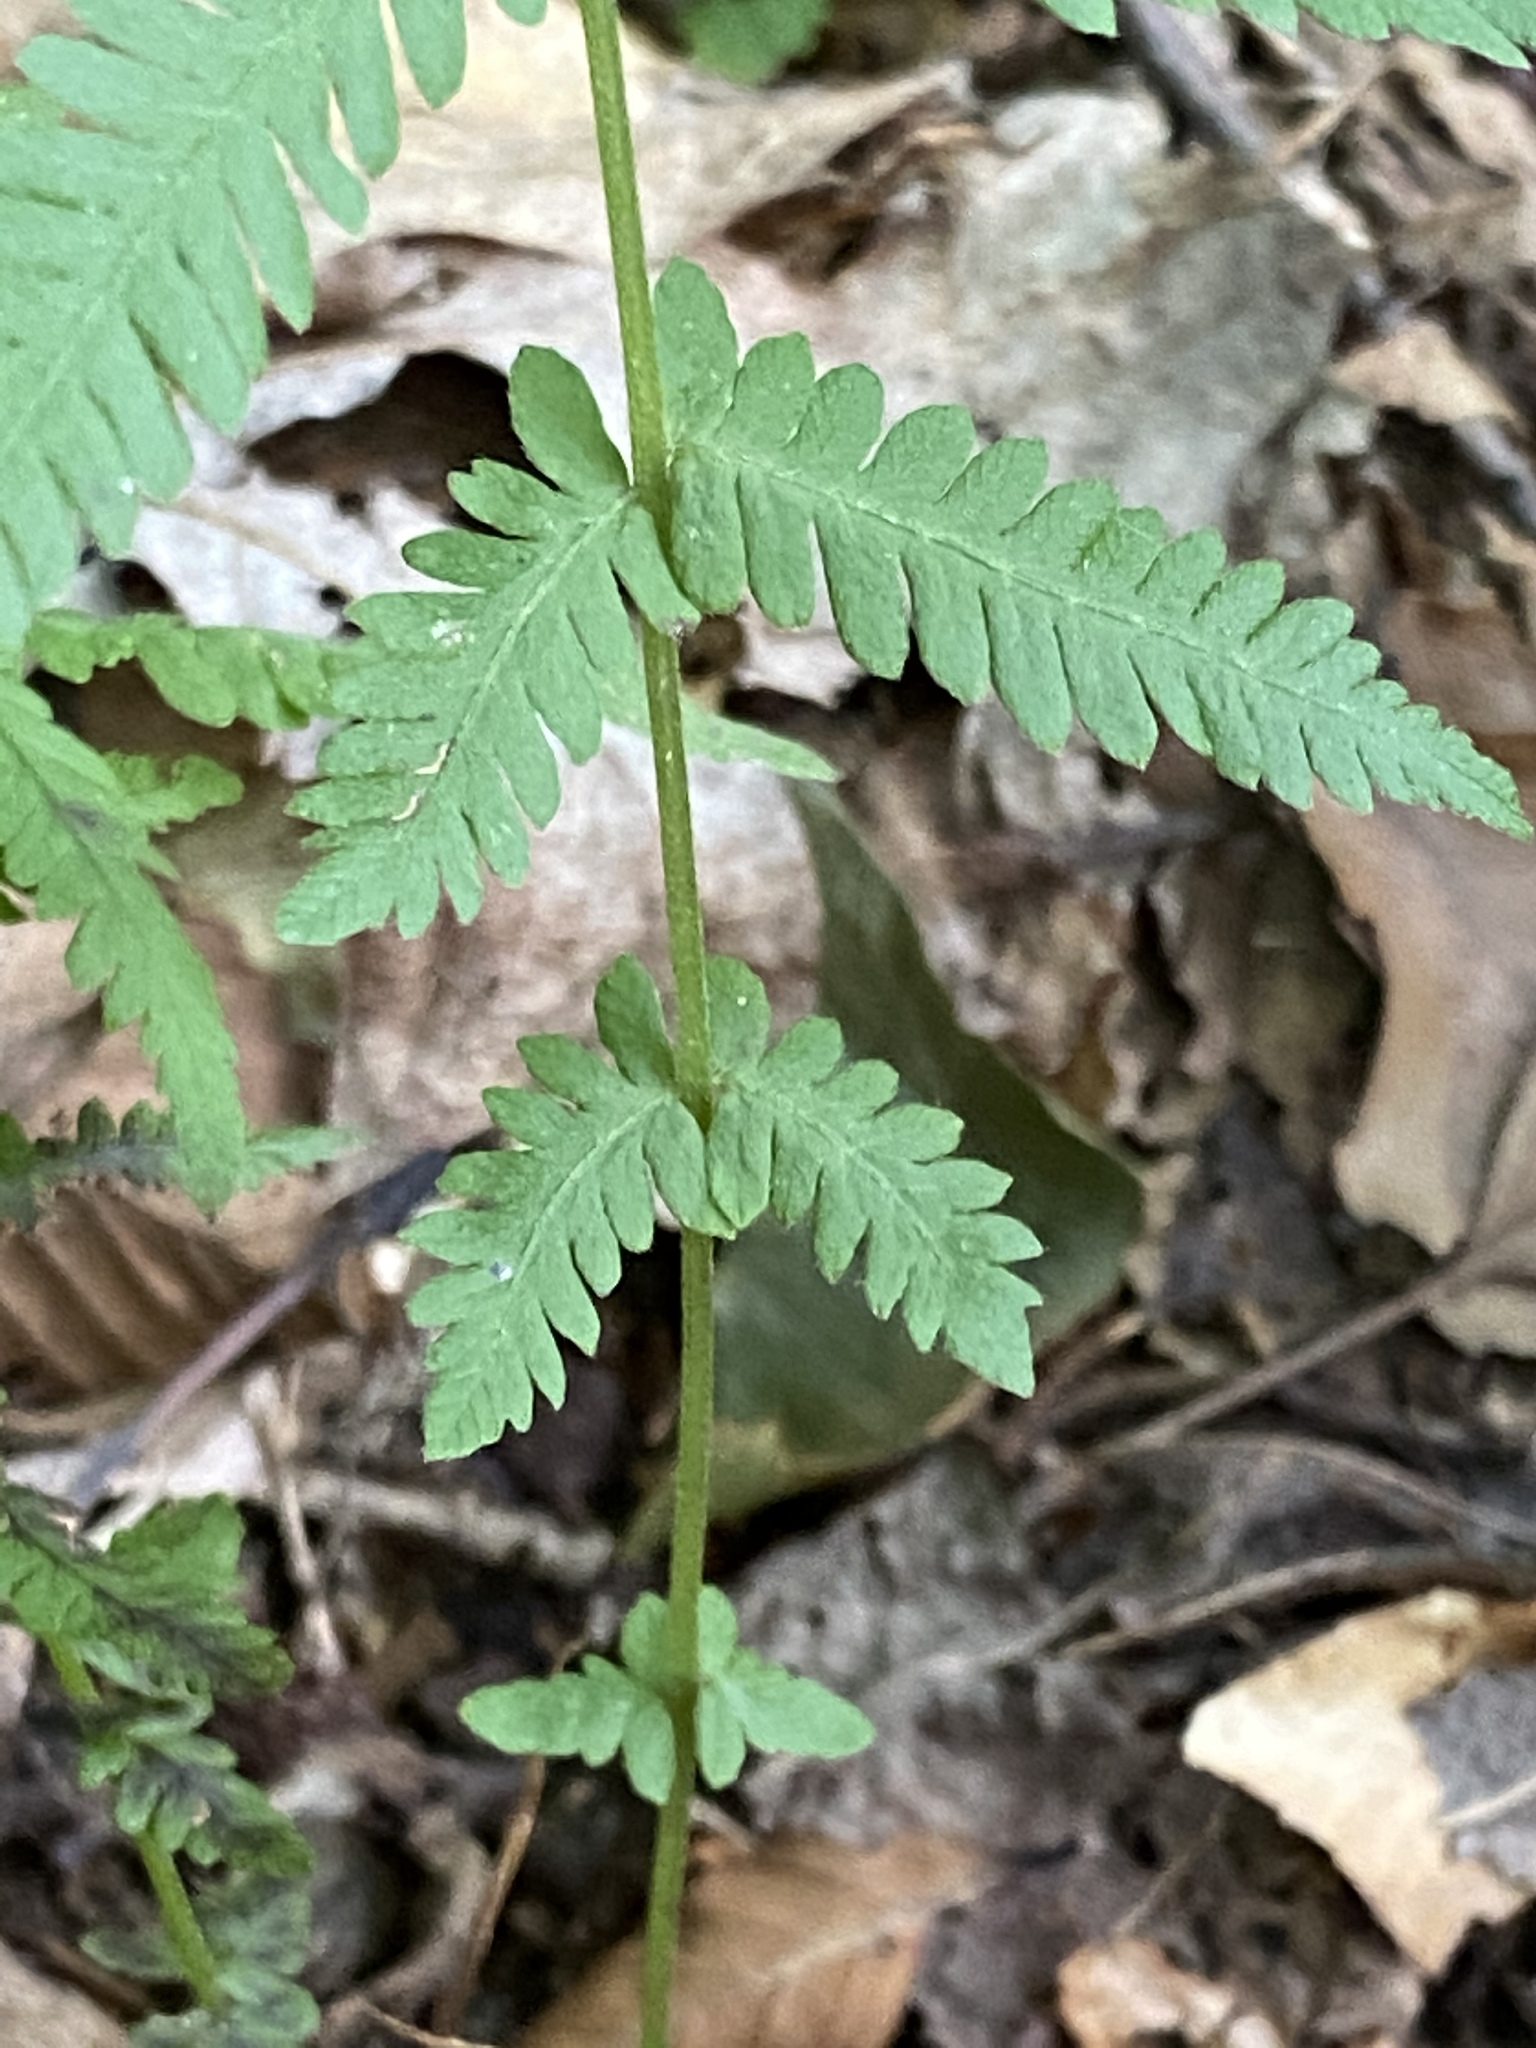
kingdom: Plantae
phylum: Tracheophyta
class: Polypodiopsida
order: Polypodiales
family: Thelypteridaceae
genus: Amauropelta
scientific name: Amauropelta noveboracensis
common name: New york fern
